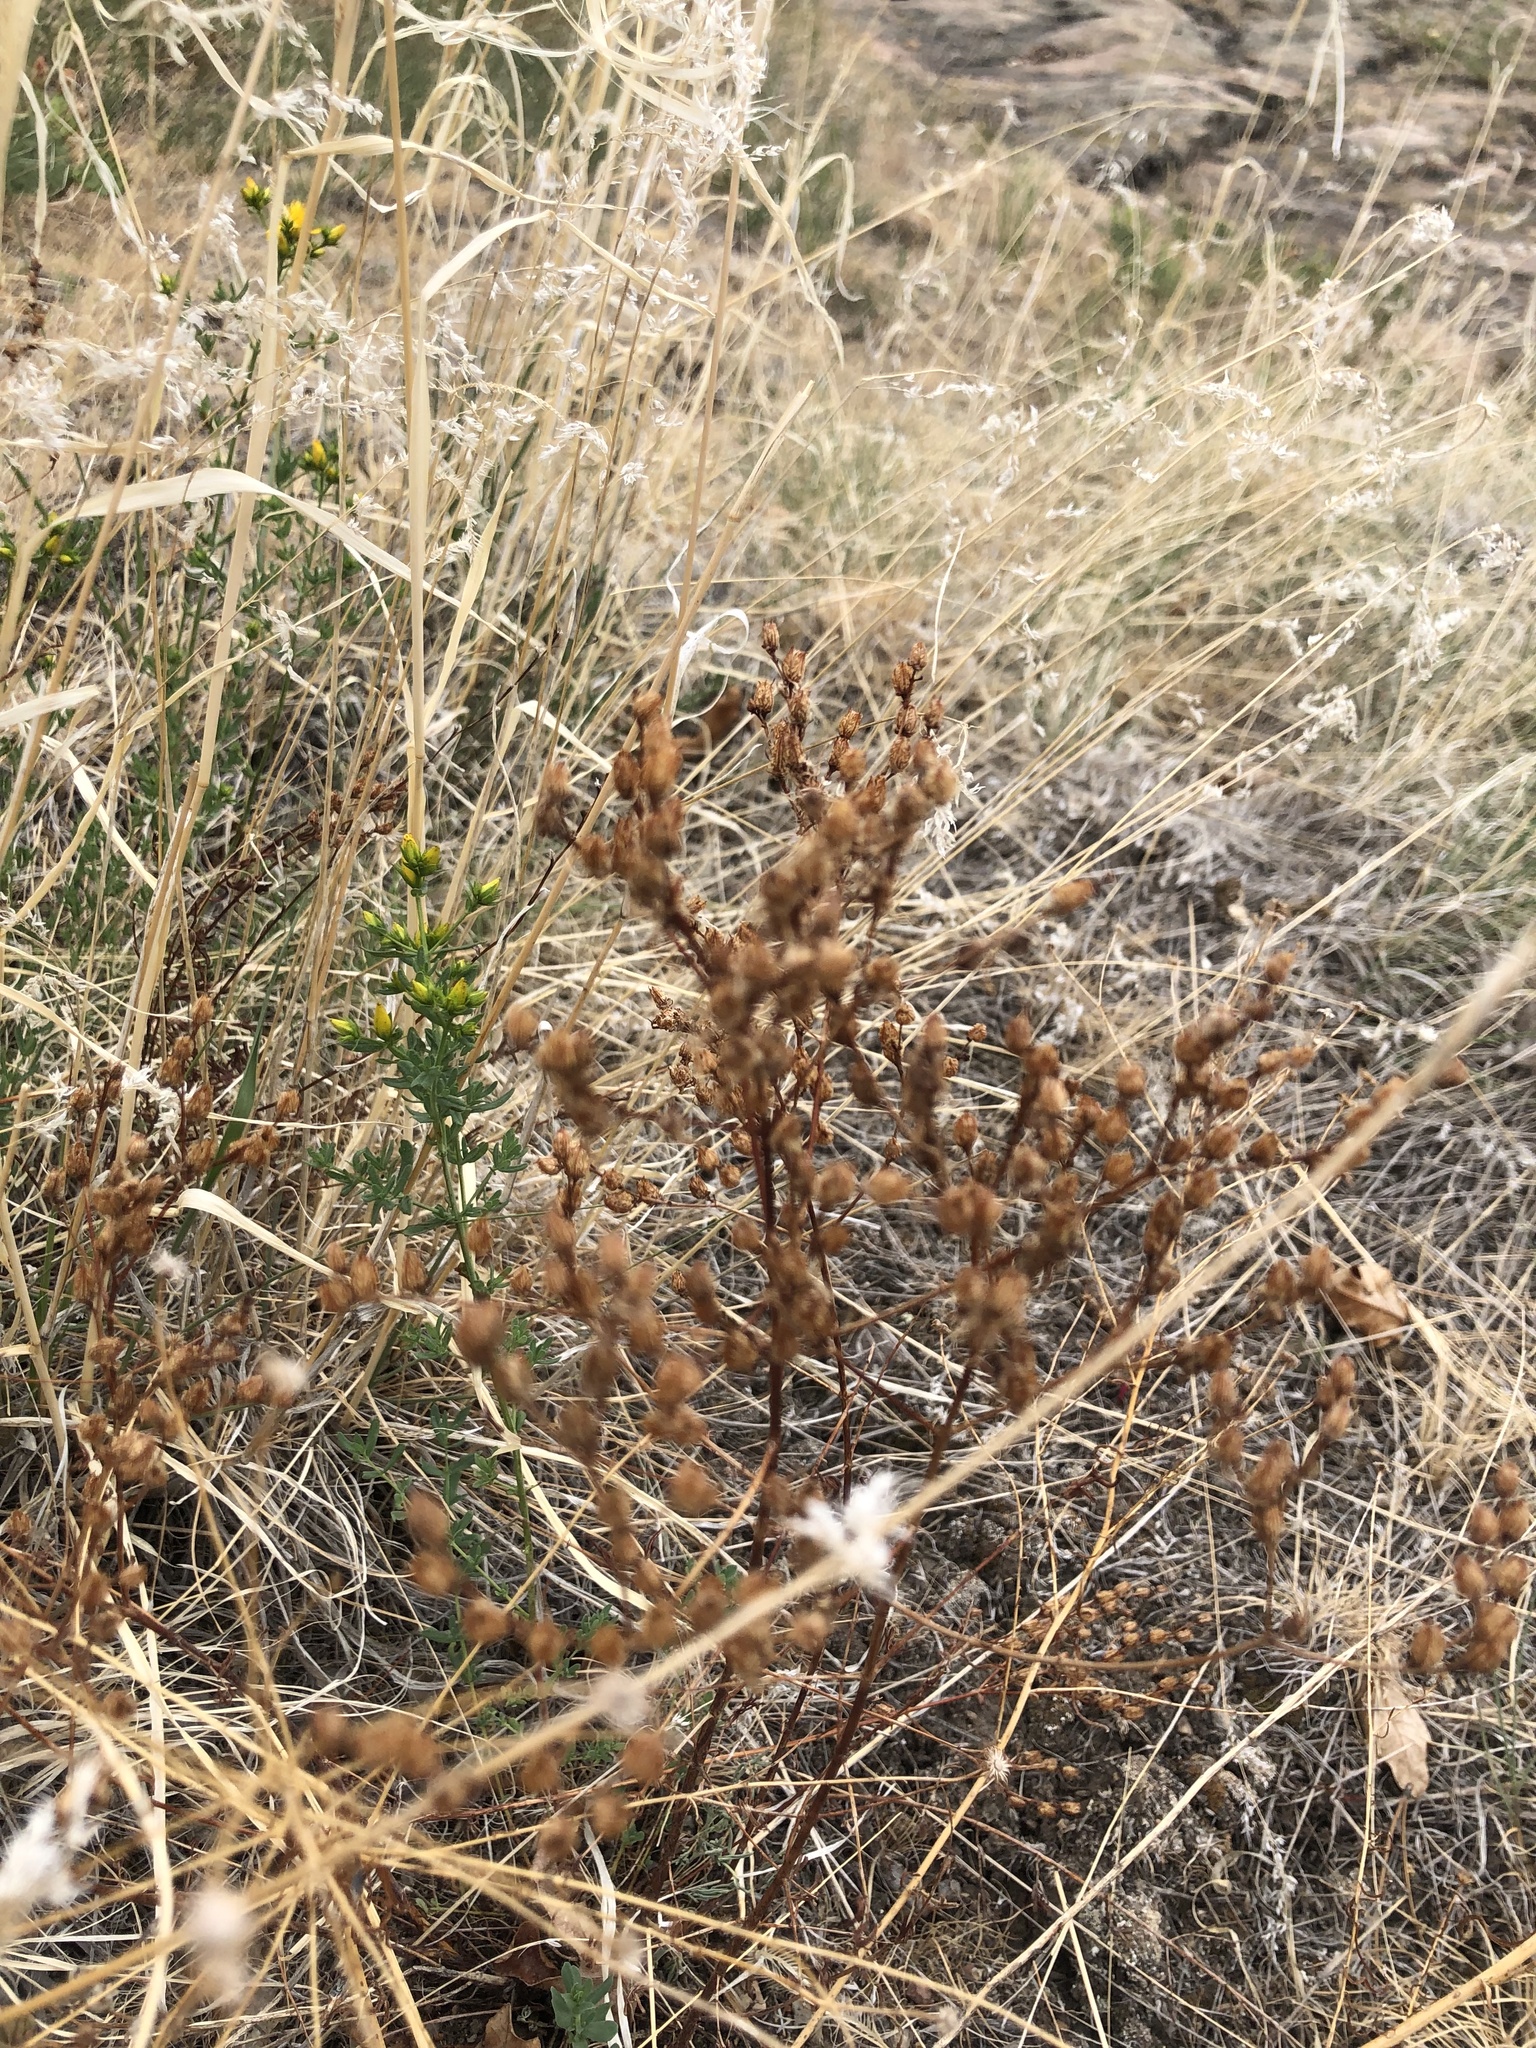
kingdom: Plantae
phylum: Tracheophyta
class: Magnoliopsida
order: Malpighiales
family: Hypericaceae
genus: Hypericum
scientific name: Hypericum perforatum
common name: Common st. johnswort
